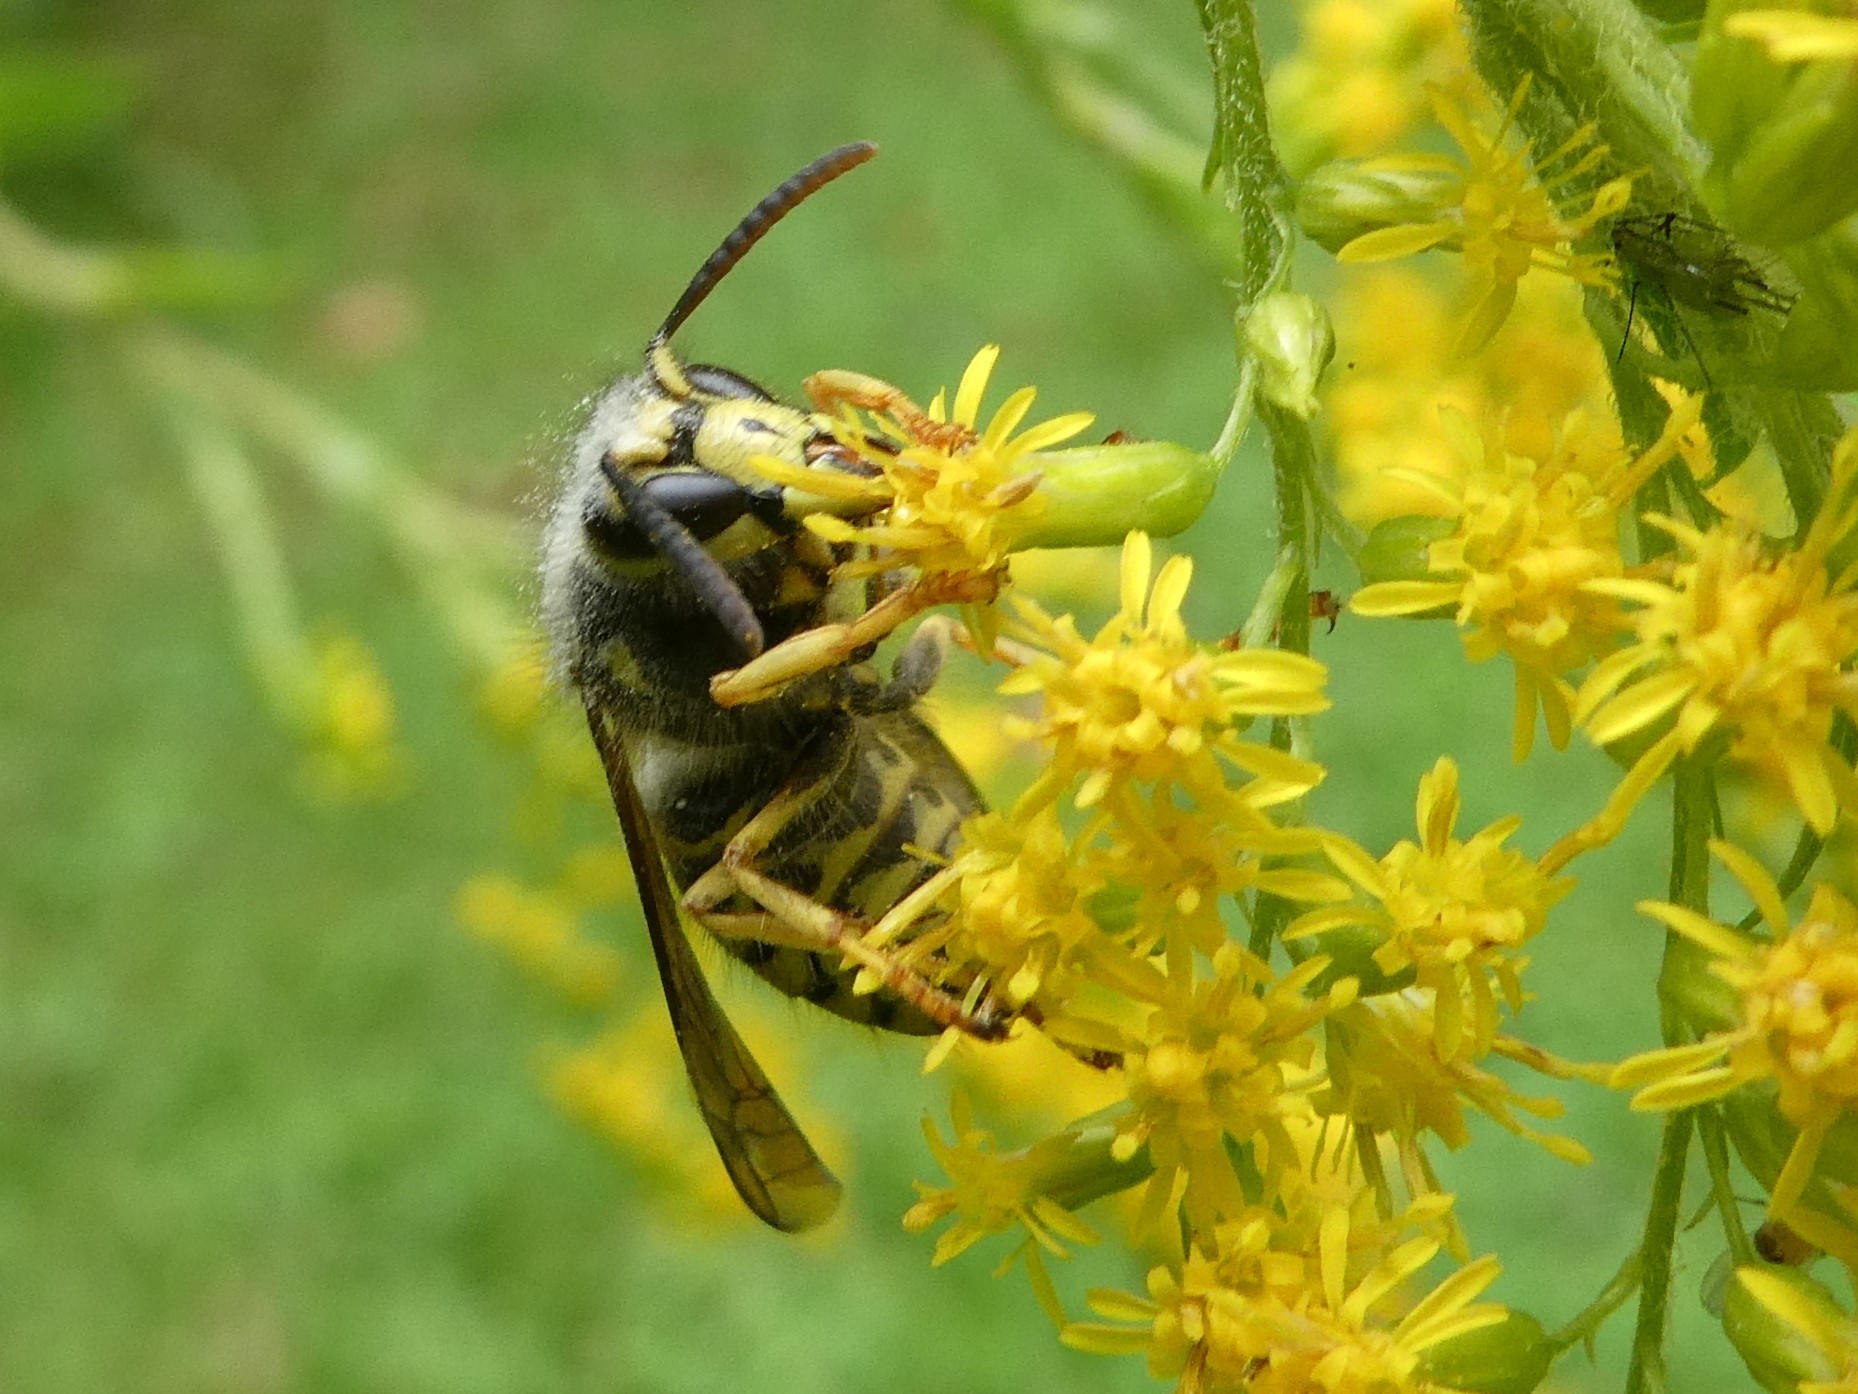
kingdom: Animalia
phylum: Arthropoda
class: Insecta
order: Hymenoptera
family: Vespidae
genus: Dolichovespula
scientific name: Dolichovespula arenaria
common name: Aerial yellowjacket
